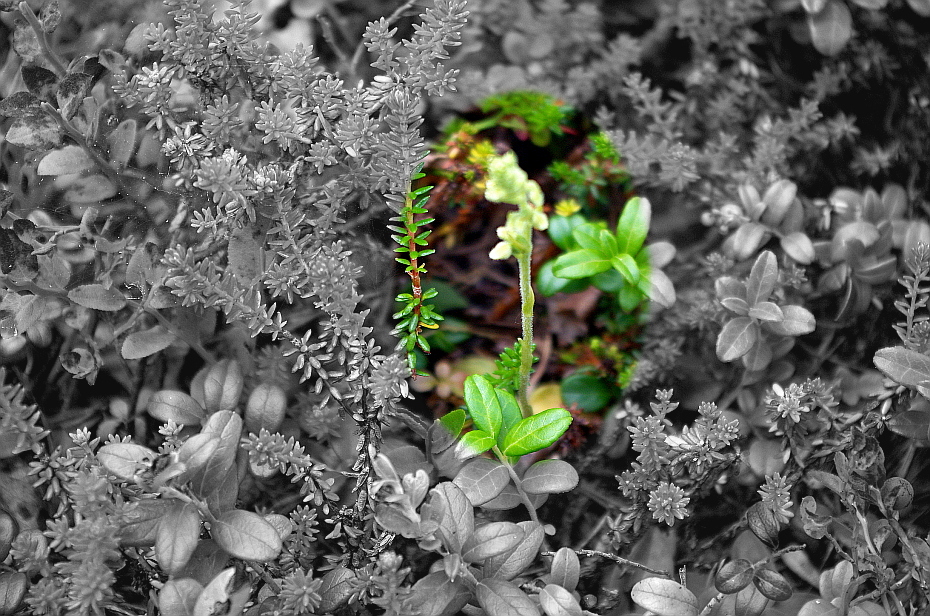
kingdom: Plantae
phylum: Tracheophyta
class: Liliopsida
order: Asparagales
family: Orchidaceae
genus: Goodyera
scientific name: Goodyera repens
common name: Creeping lady's-tresses
